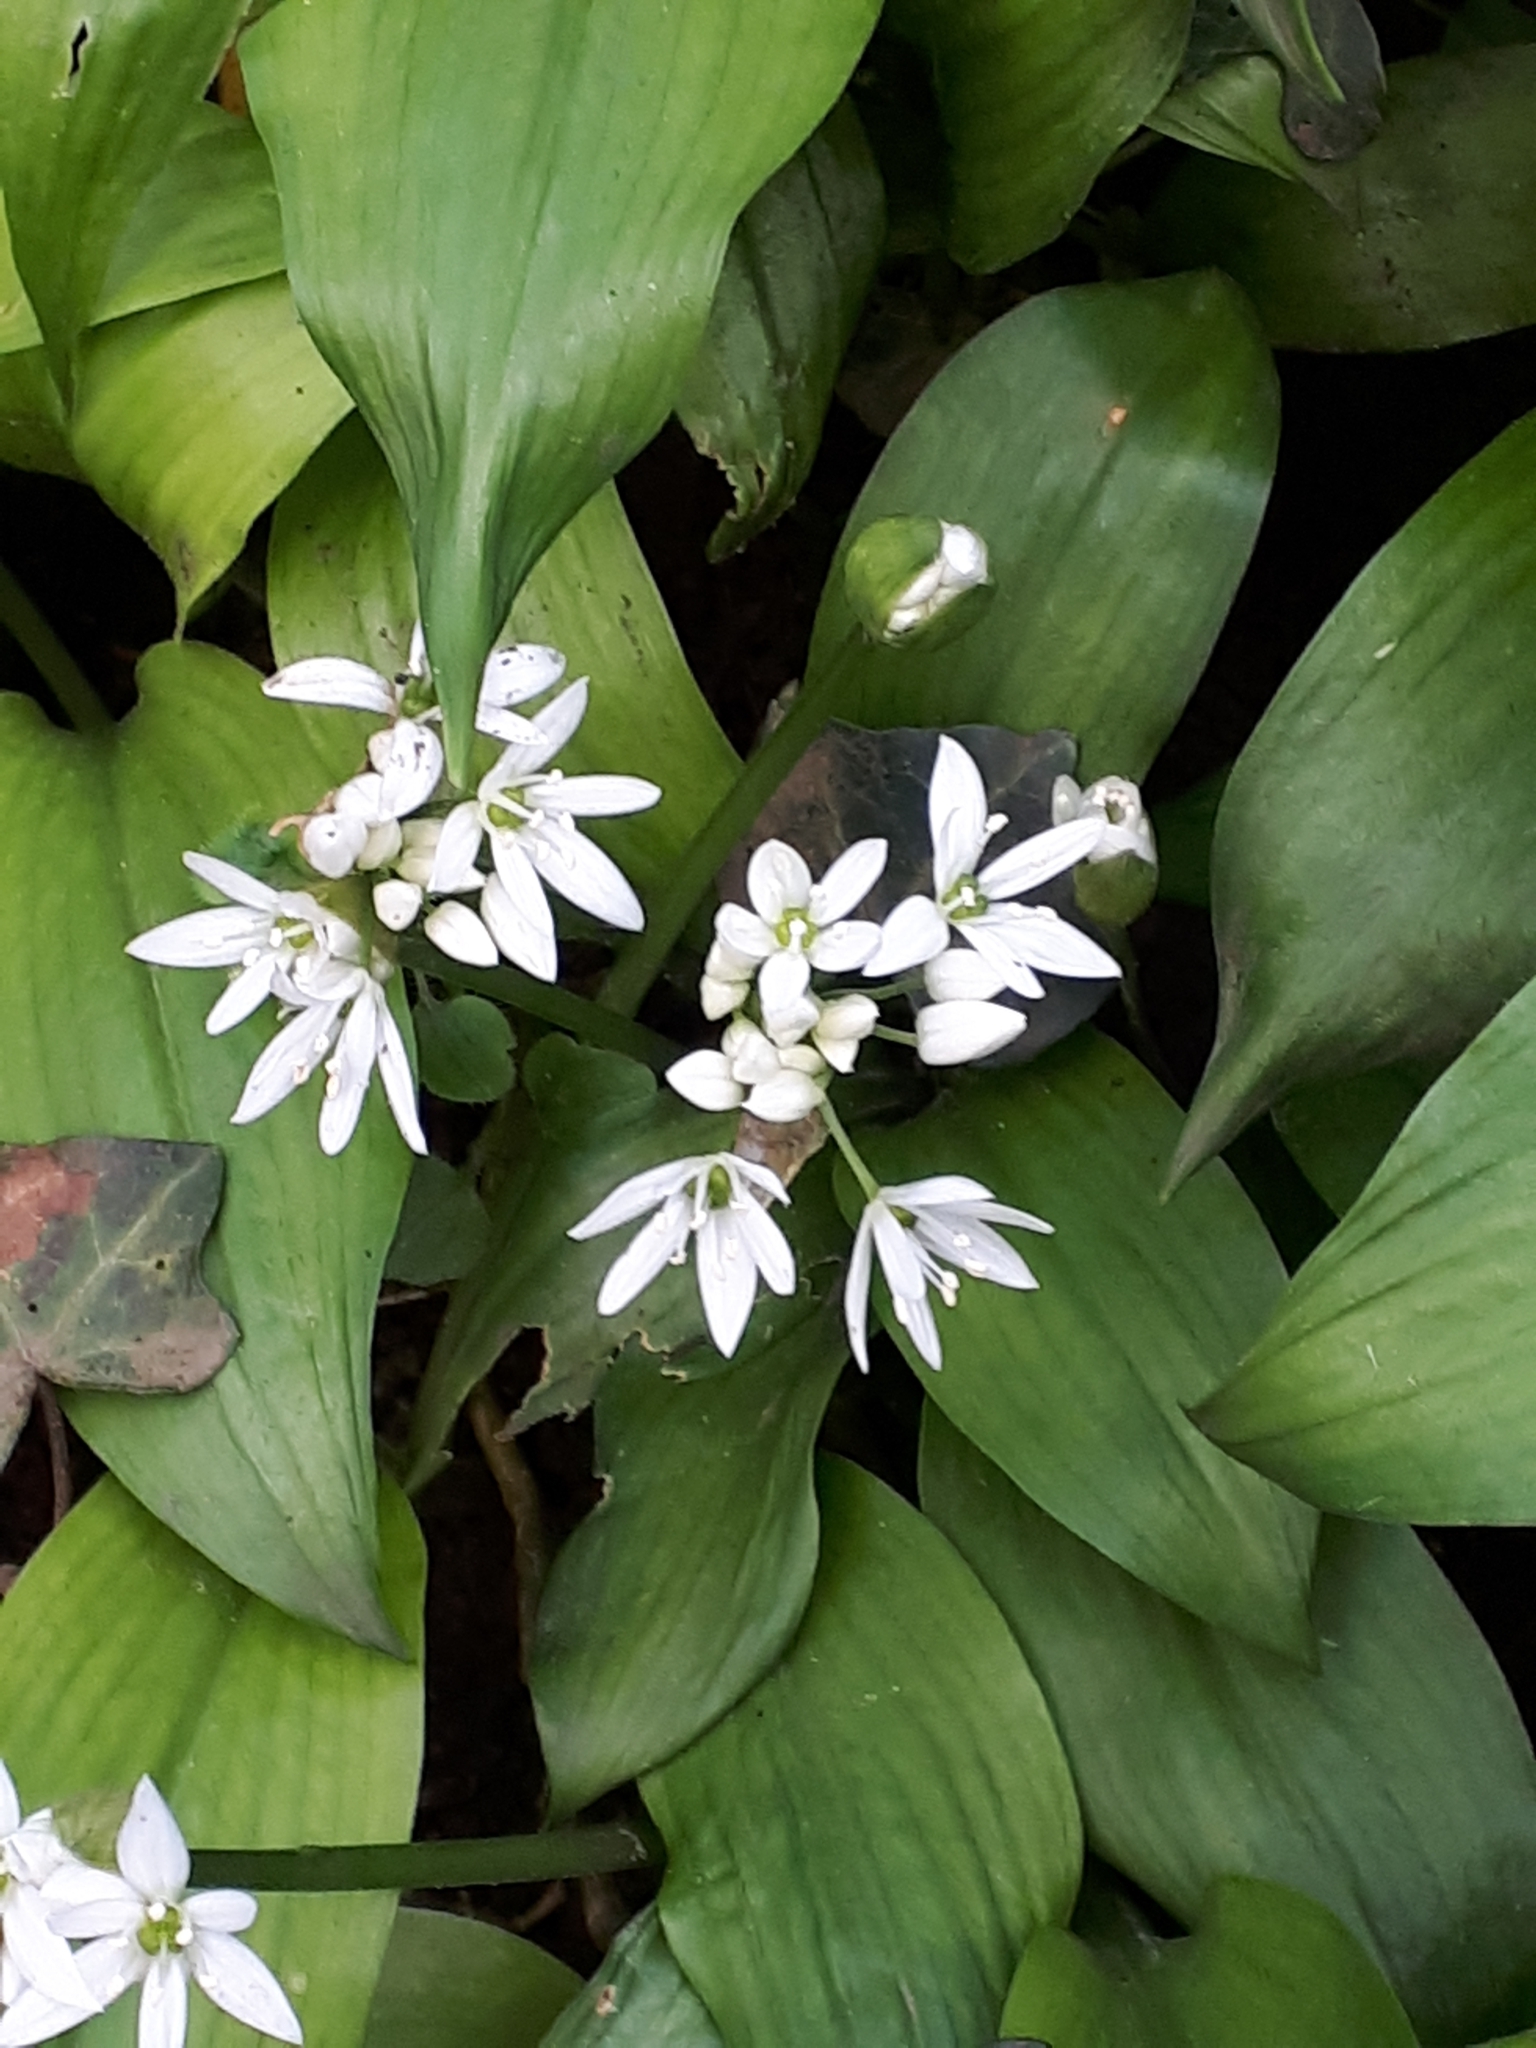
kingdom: Plantae
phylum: Tracheophyta
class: Liliopsida
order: Asparagales
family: Amaryllidaceae
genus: Allium
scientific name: Allium ursinum
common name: Ramsons
